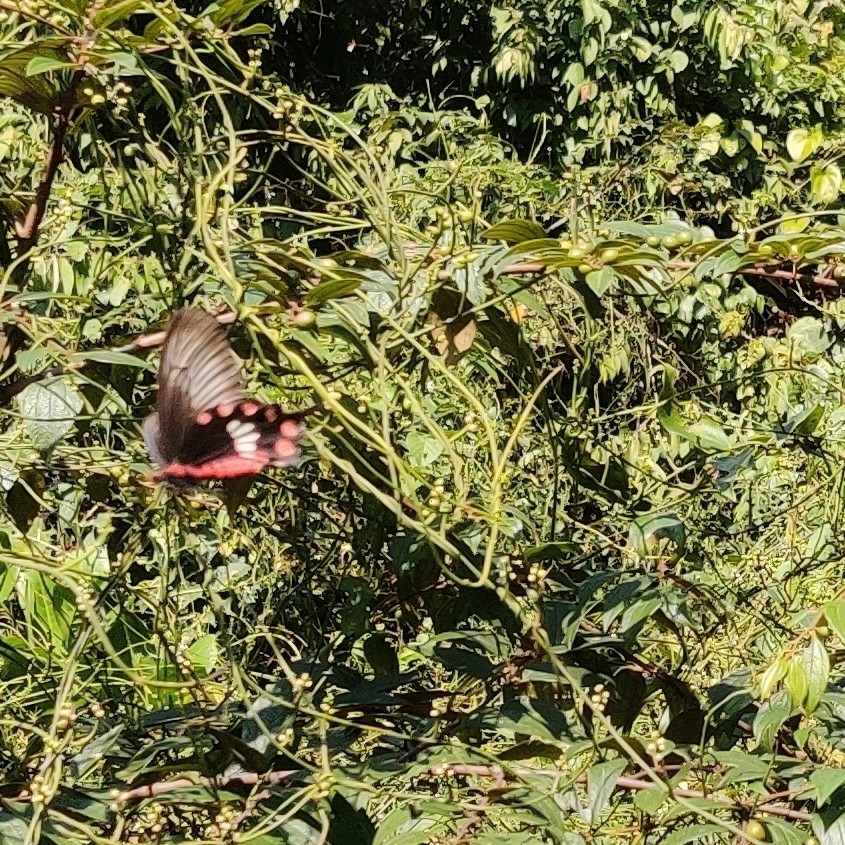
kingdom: Animalia
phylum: Arthropoda
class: Insecta
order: Lepidoptera
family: Papilionidae
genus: Pachliopta
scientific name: Pachliopta aristolochiae
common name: Common rose
